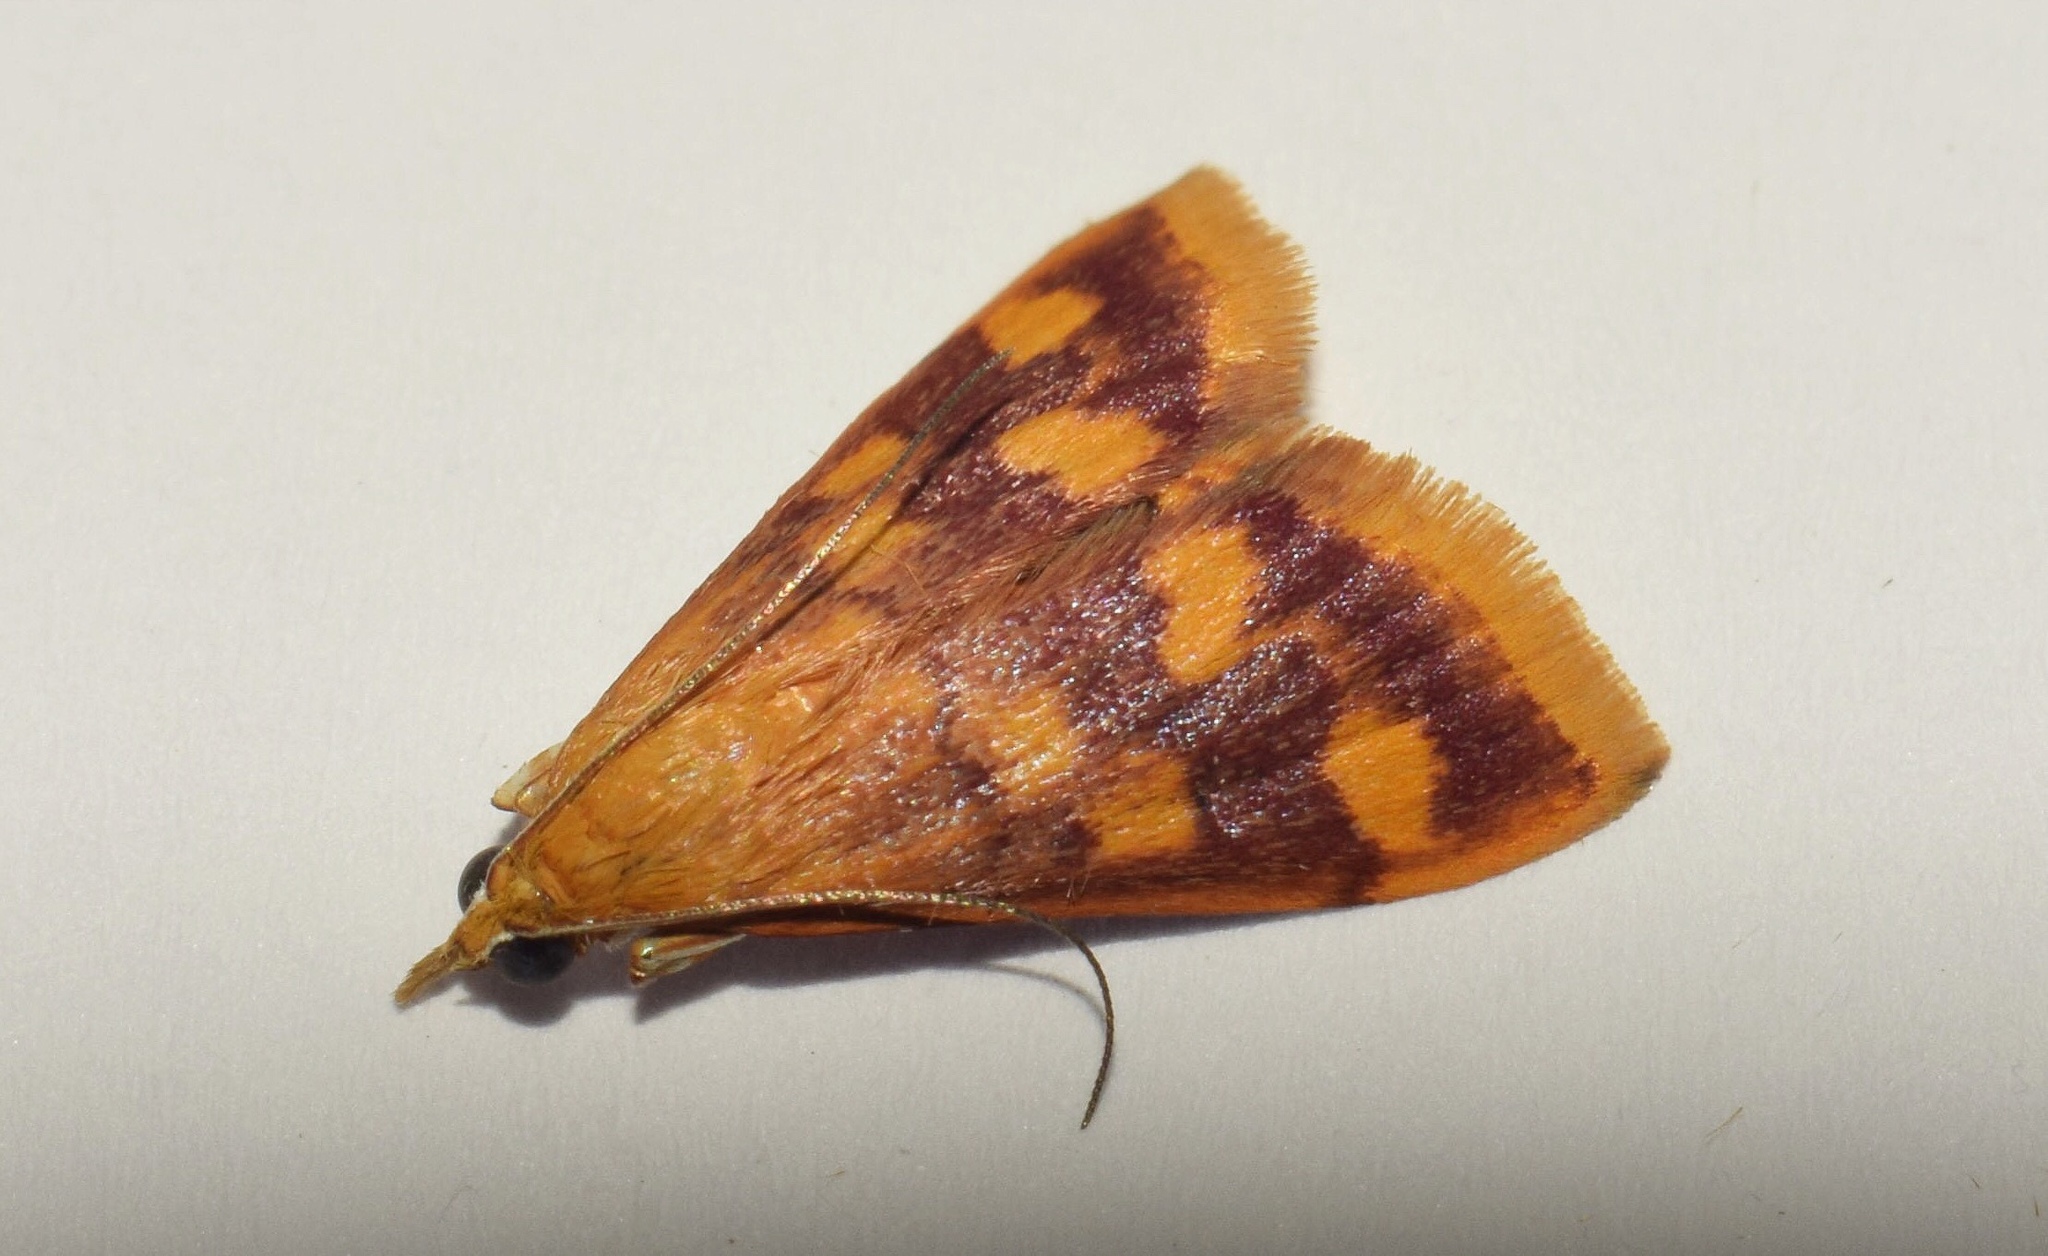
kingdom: Animalia
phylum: Arthropoda
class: Insecta
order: Lepidoptera
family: Crambidae
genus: Pyrausta
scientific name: Pyrausta phoenicealis
